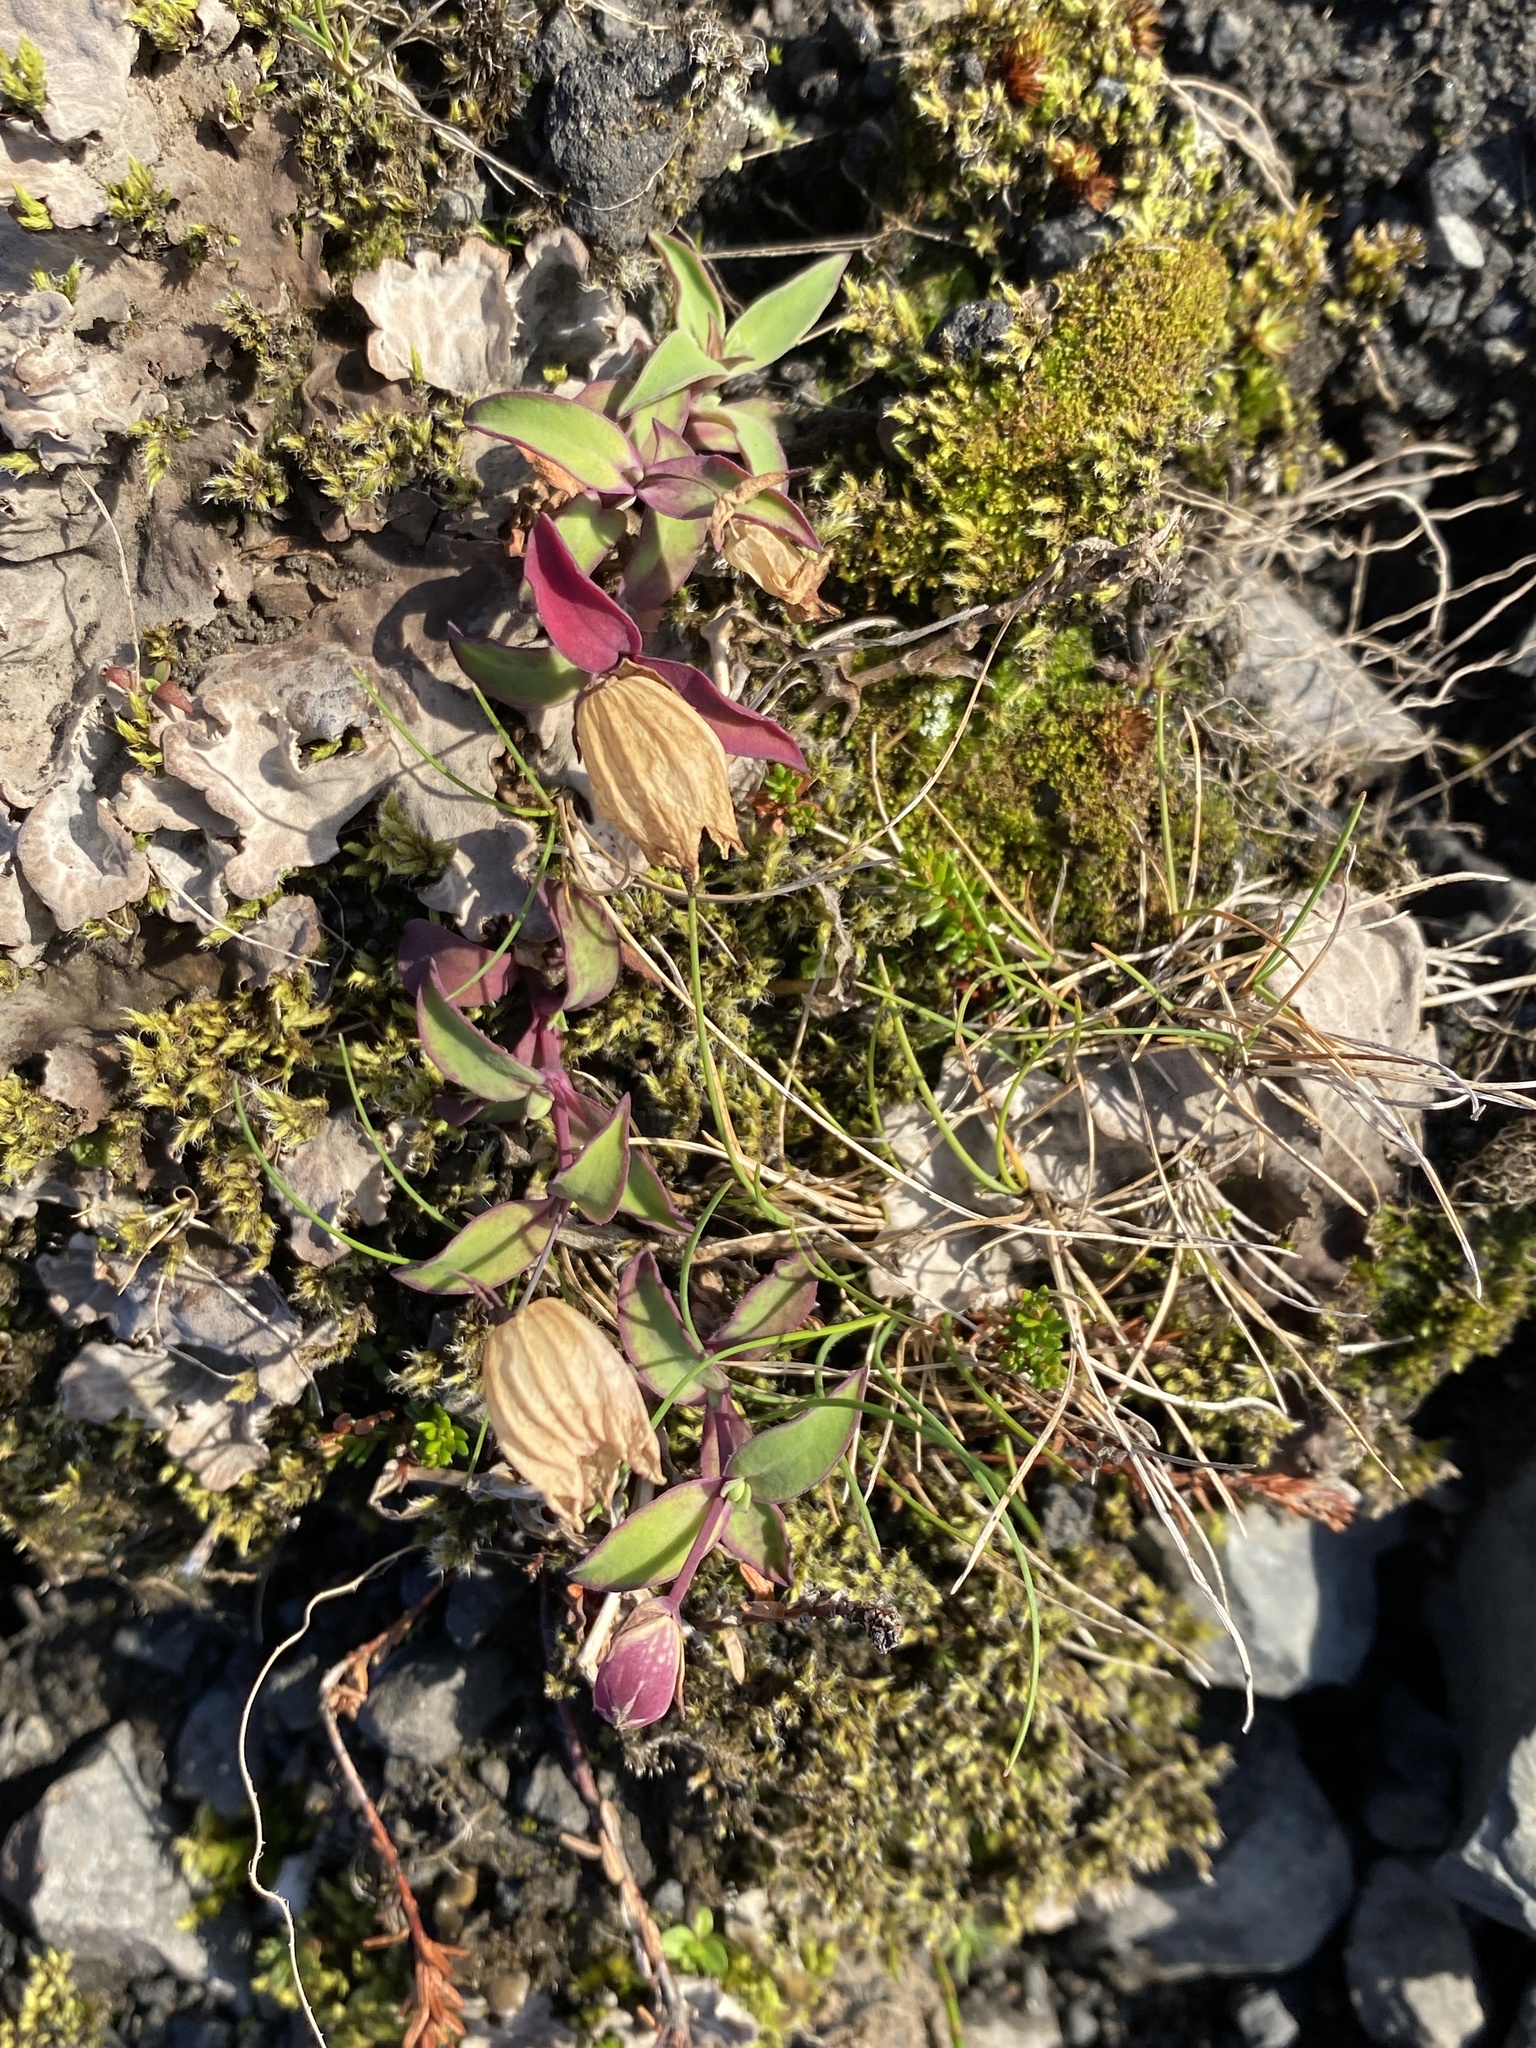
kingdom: Plantae
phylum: Tracheophyta
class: Magnoliopsida
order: Caryophyllales
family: Caryophyllaceae
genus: Silene
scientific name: Silene uniflora
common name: Sea campion
